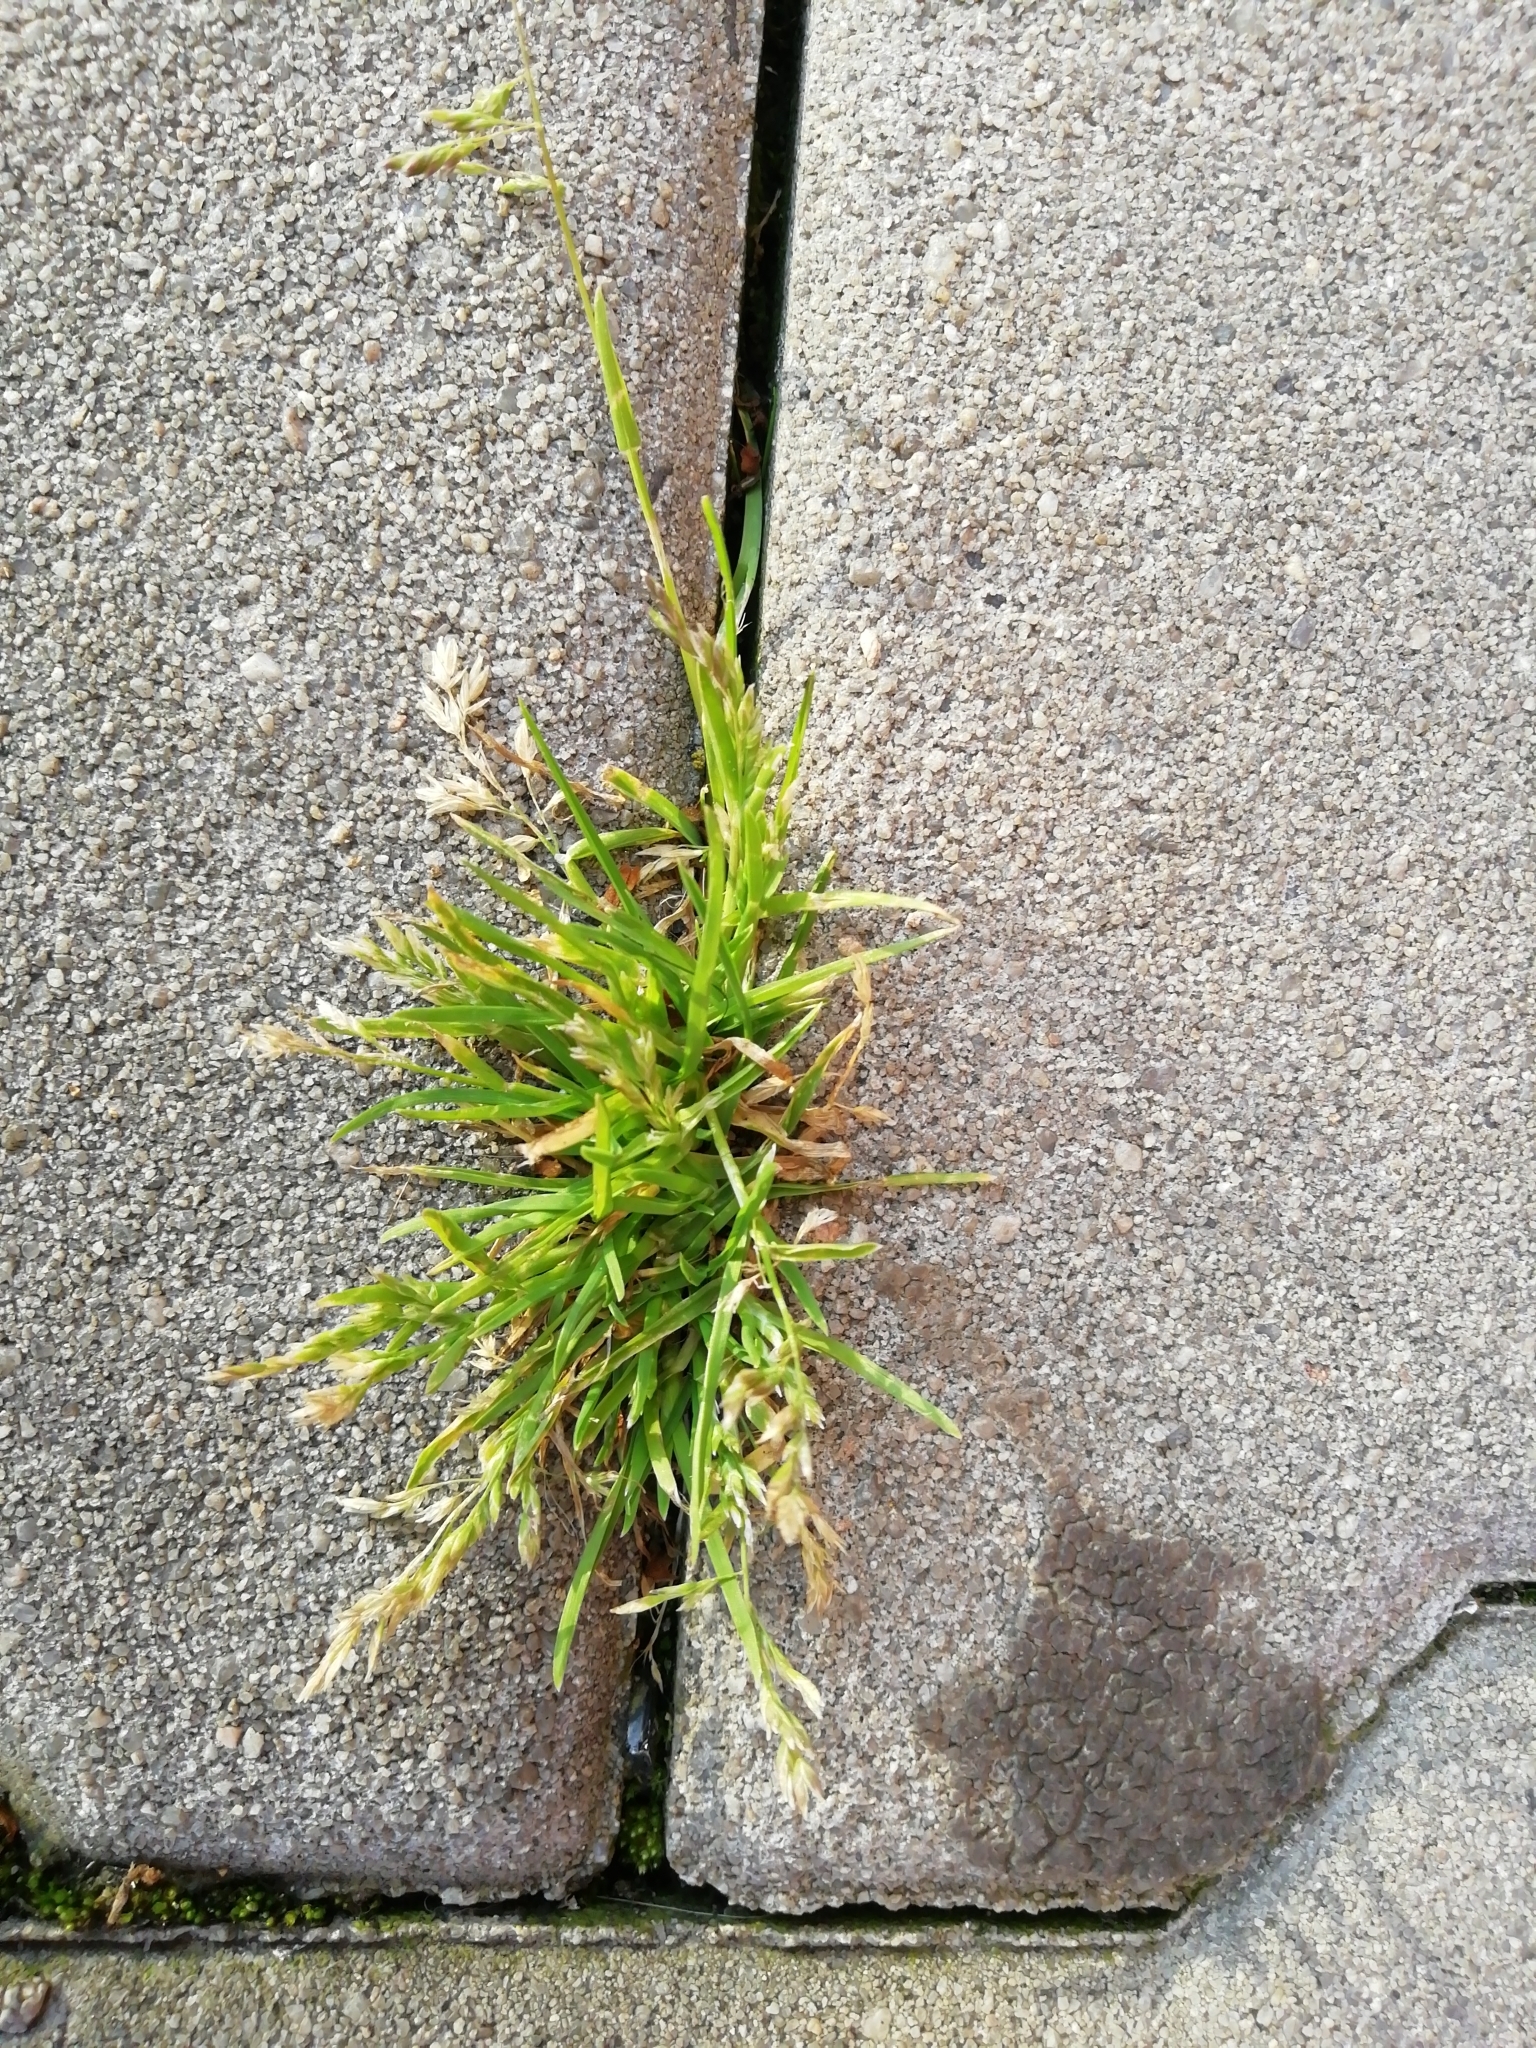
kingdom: Plantae
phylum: Tracheophyta
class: Liliopsida
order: Poales
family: Poaceae
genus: Poa
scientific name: Poa annua
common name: Annual bluegrass
